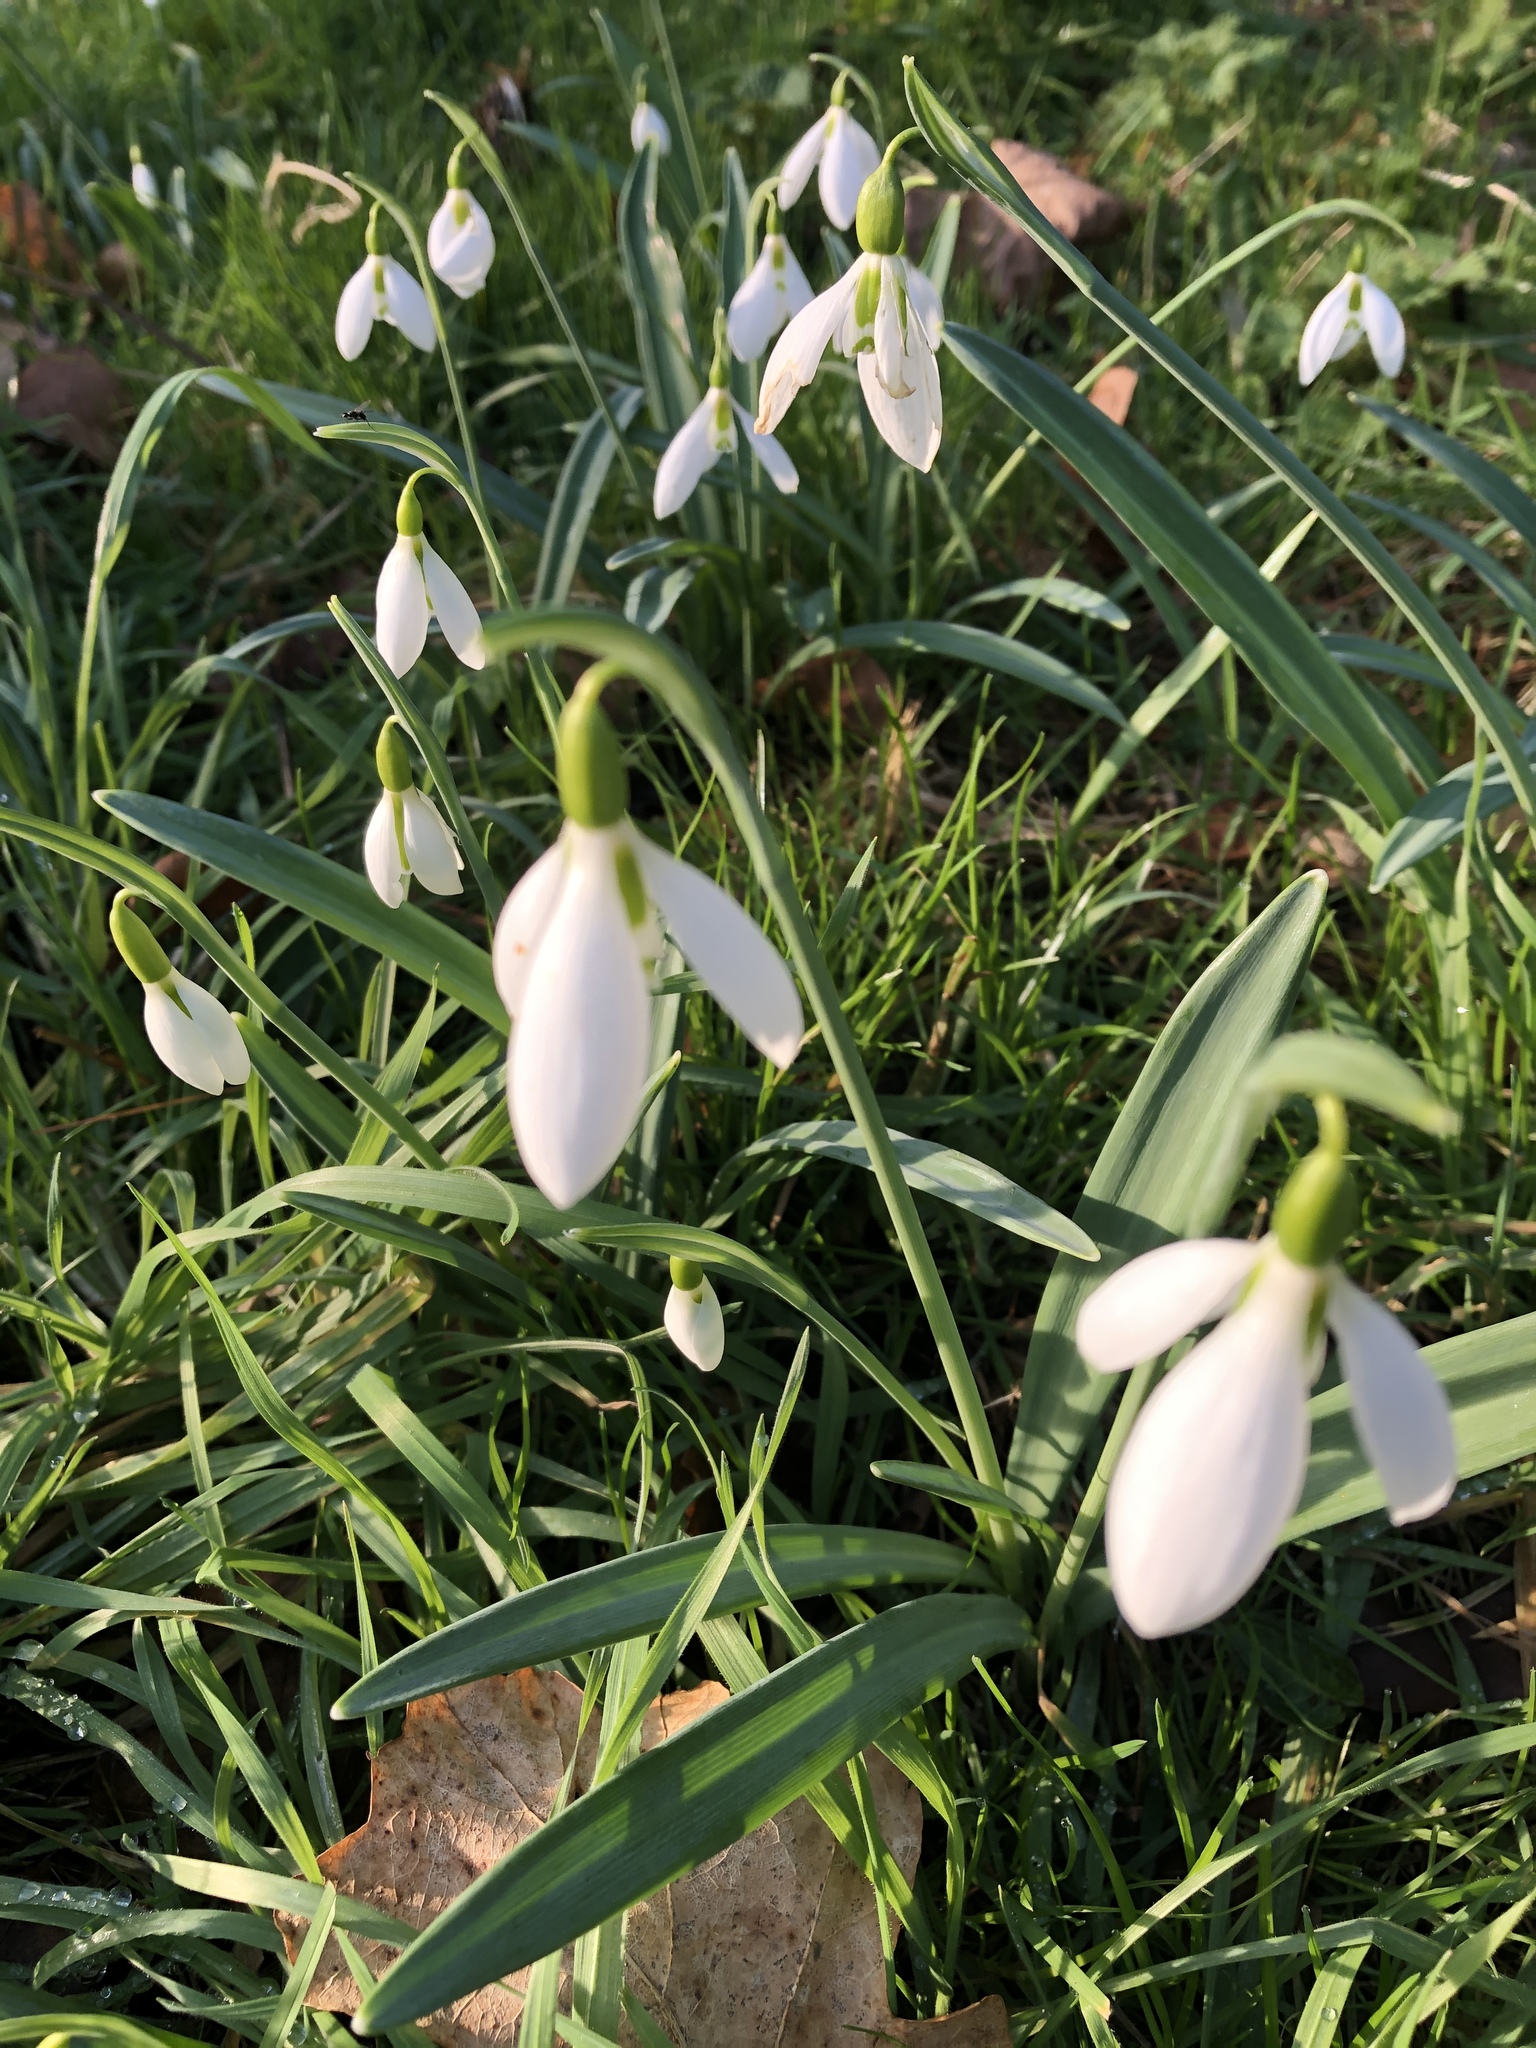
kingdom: Plantae
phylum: Tracheophyta
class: Liliopsida
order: Asparagales
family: Amaryllidaceae
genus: Galanthus
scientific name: Galanthus plicatus
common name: Pleated snowdrop
